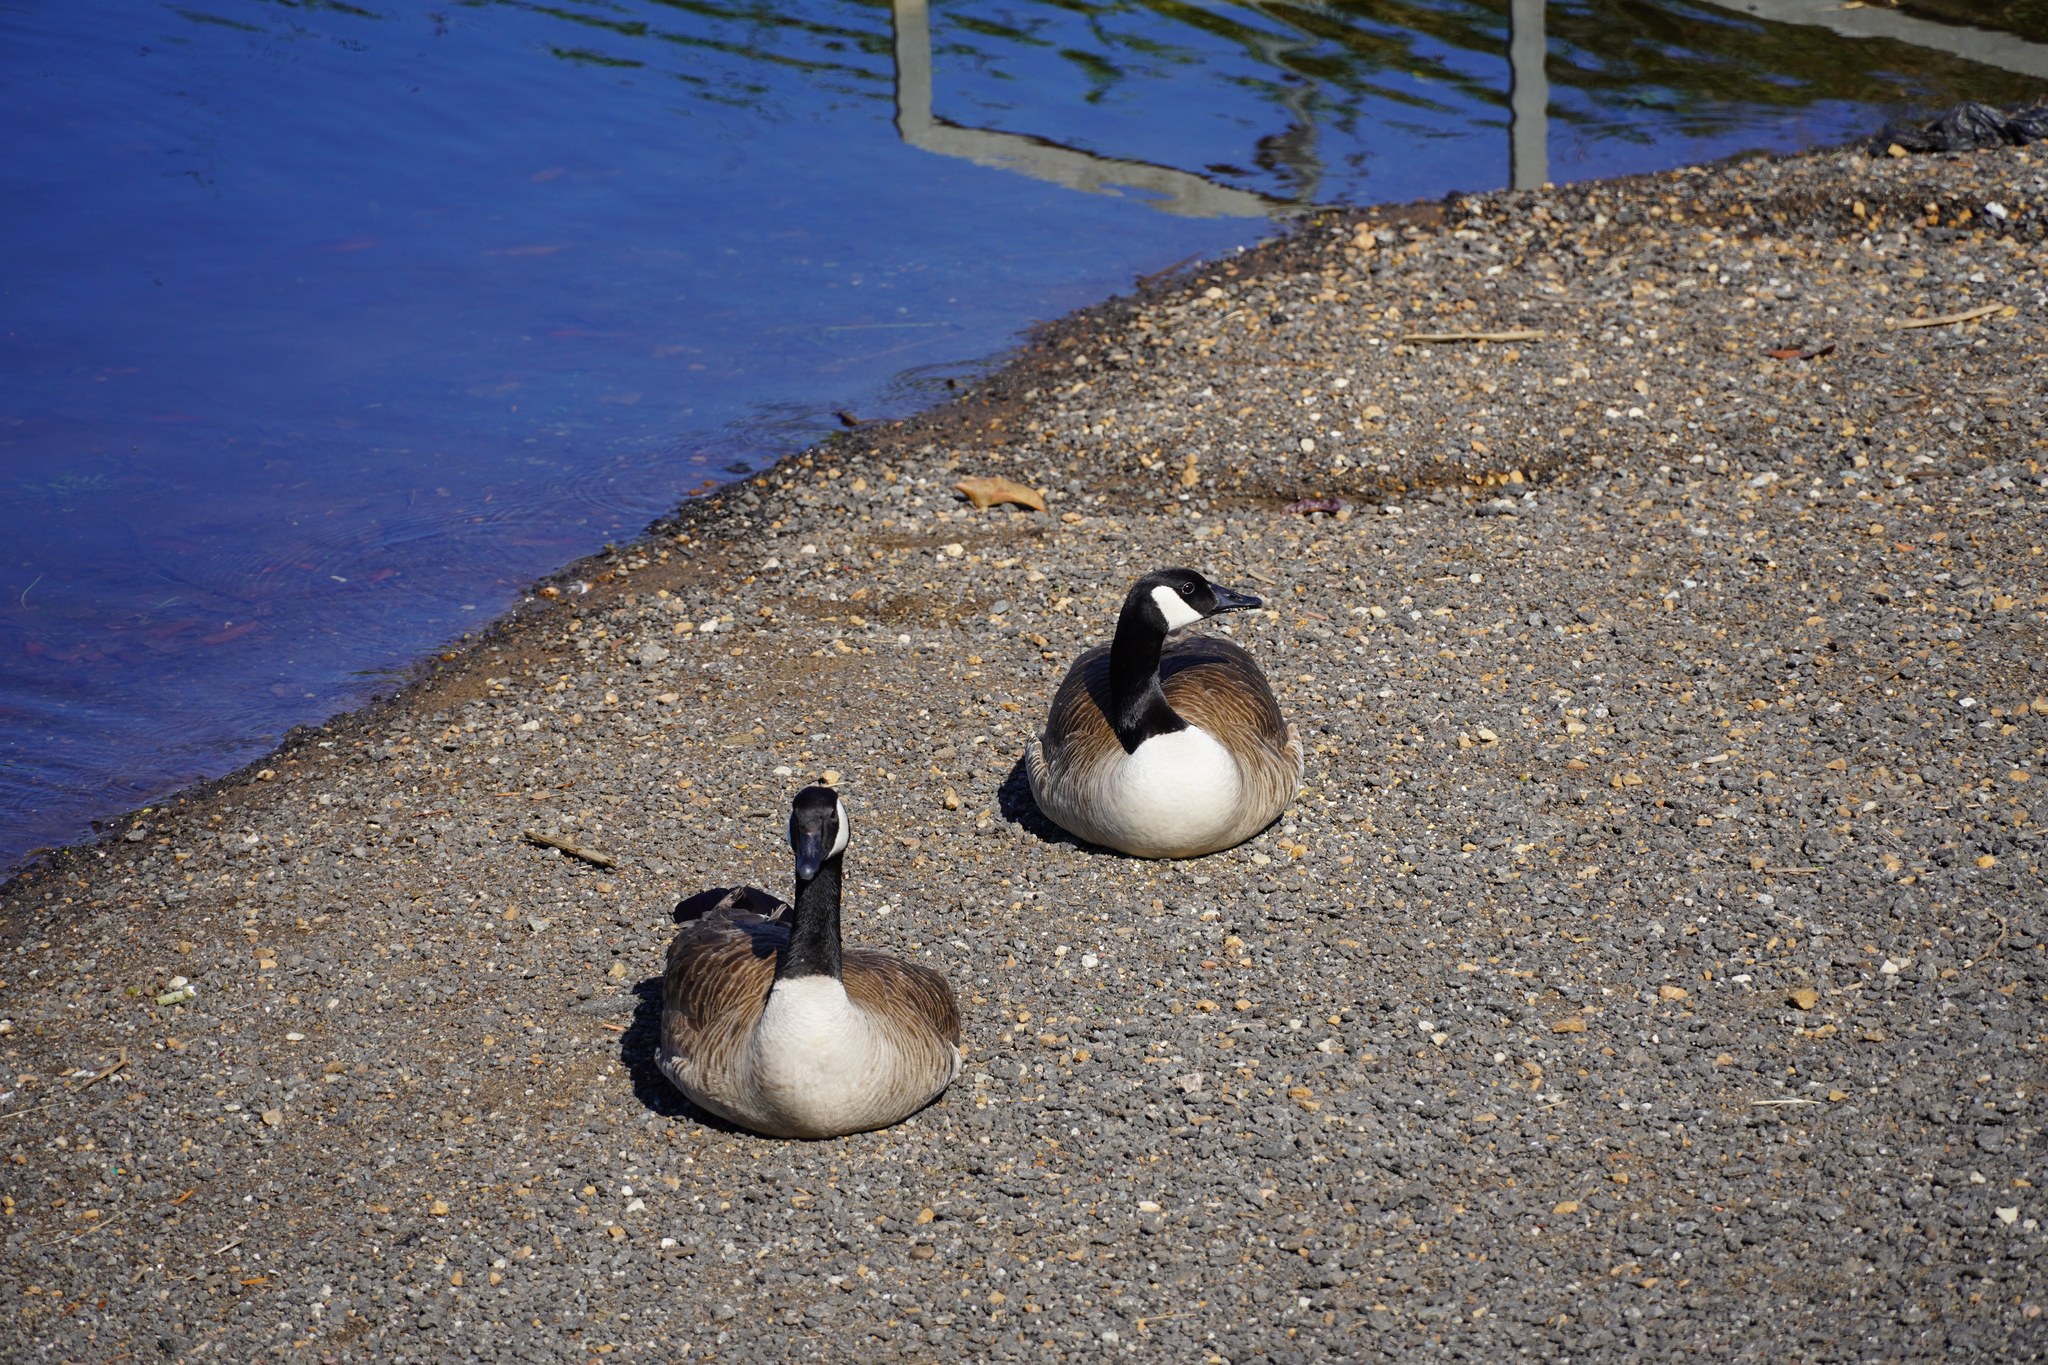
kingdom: Animalia
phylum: Chordata
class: Aves
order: Anseriformes
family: Anatidae
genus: Branta
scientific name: Branta canadensis
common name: Canada goose
